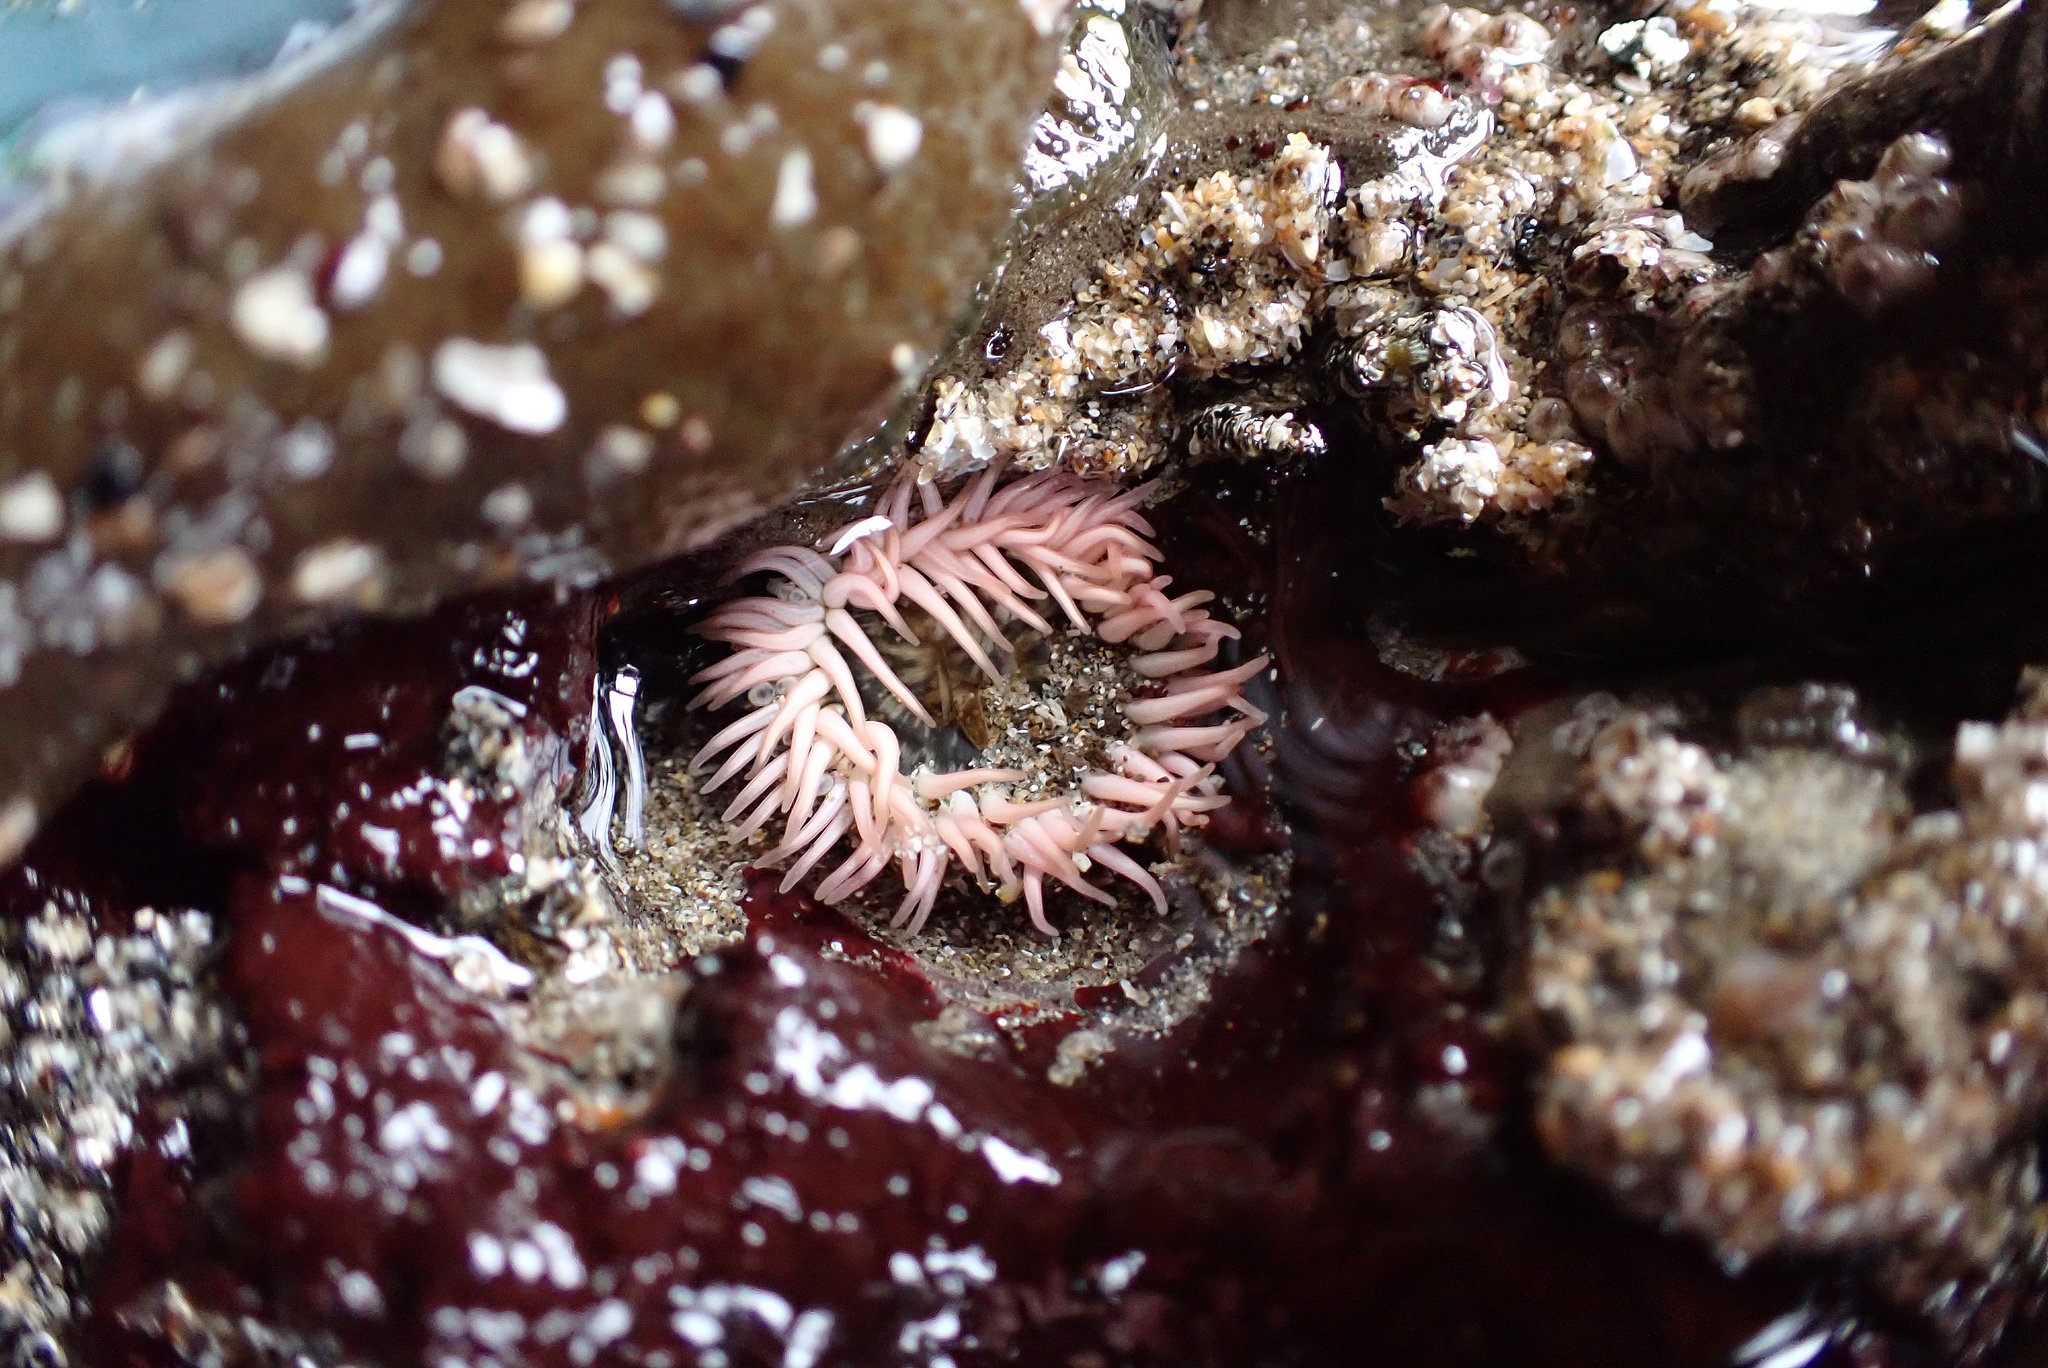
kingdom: Animalia
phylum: Cnidaria
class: Anthozoa
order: Actiniaria
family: Actiniidae
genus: Anthopleura
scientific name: Anthopleura artemisia
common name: Buried sea anemone
